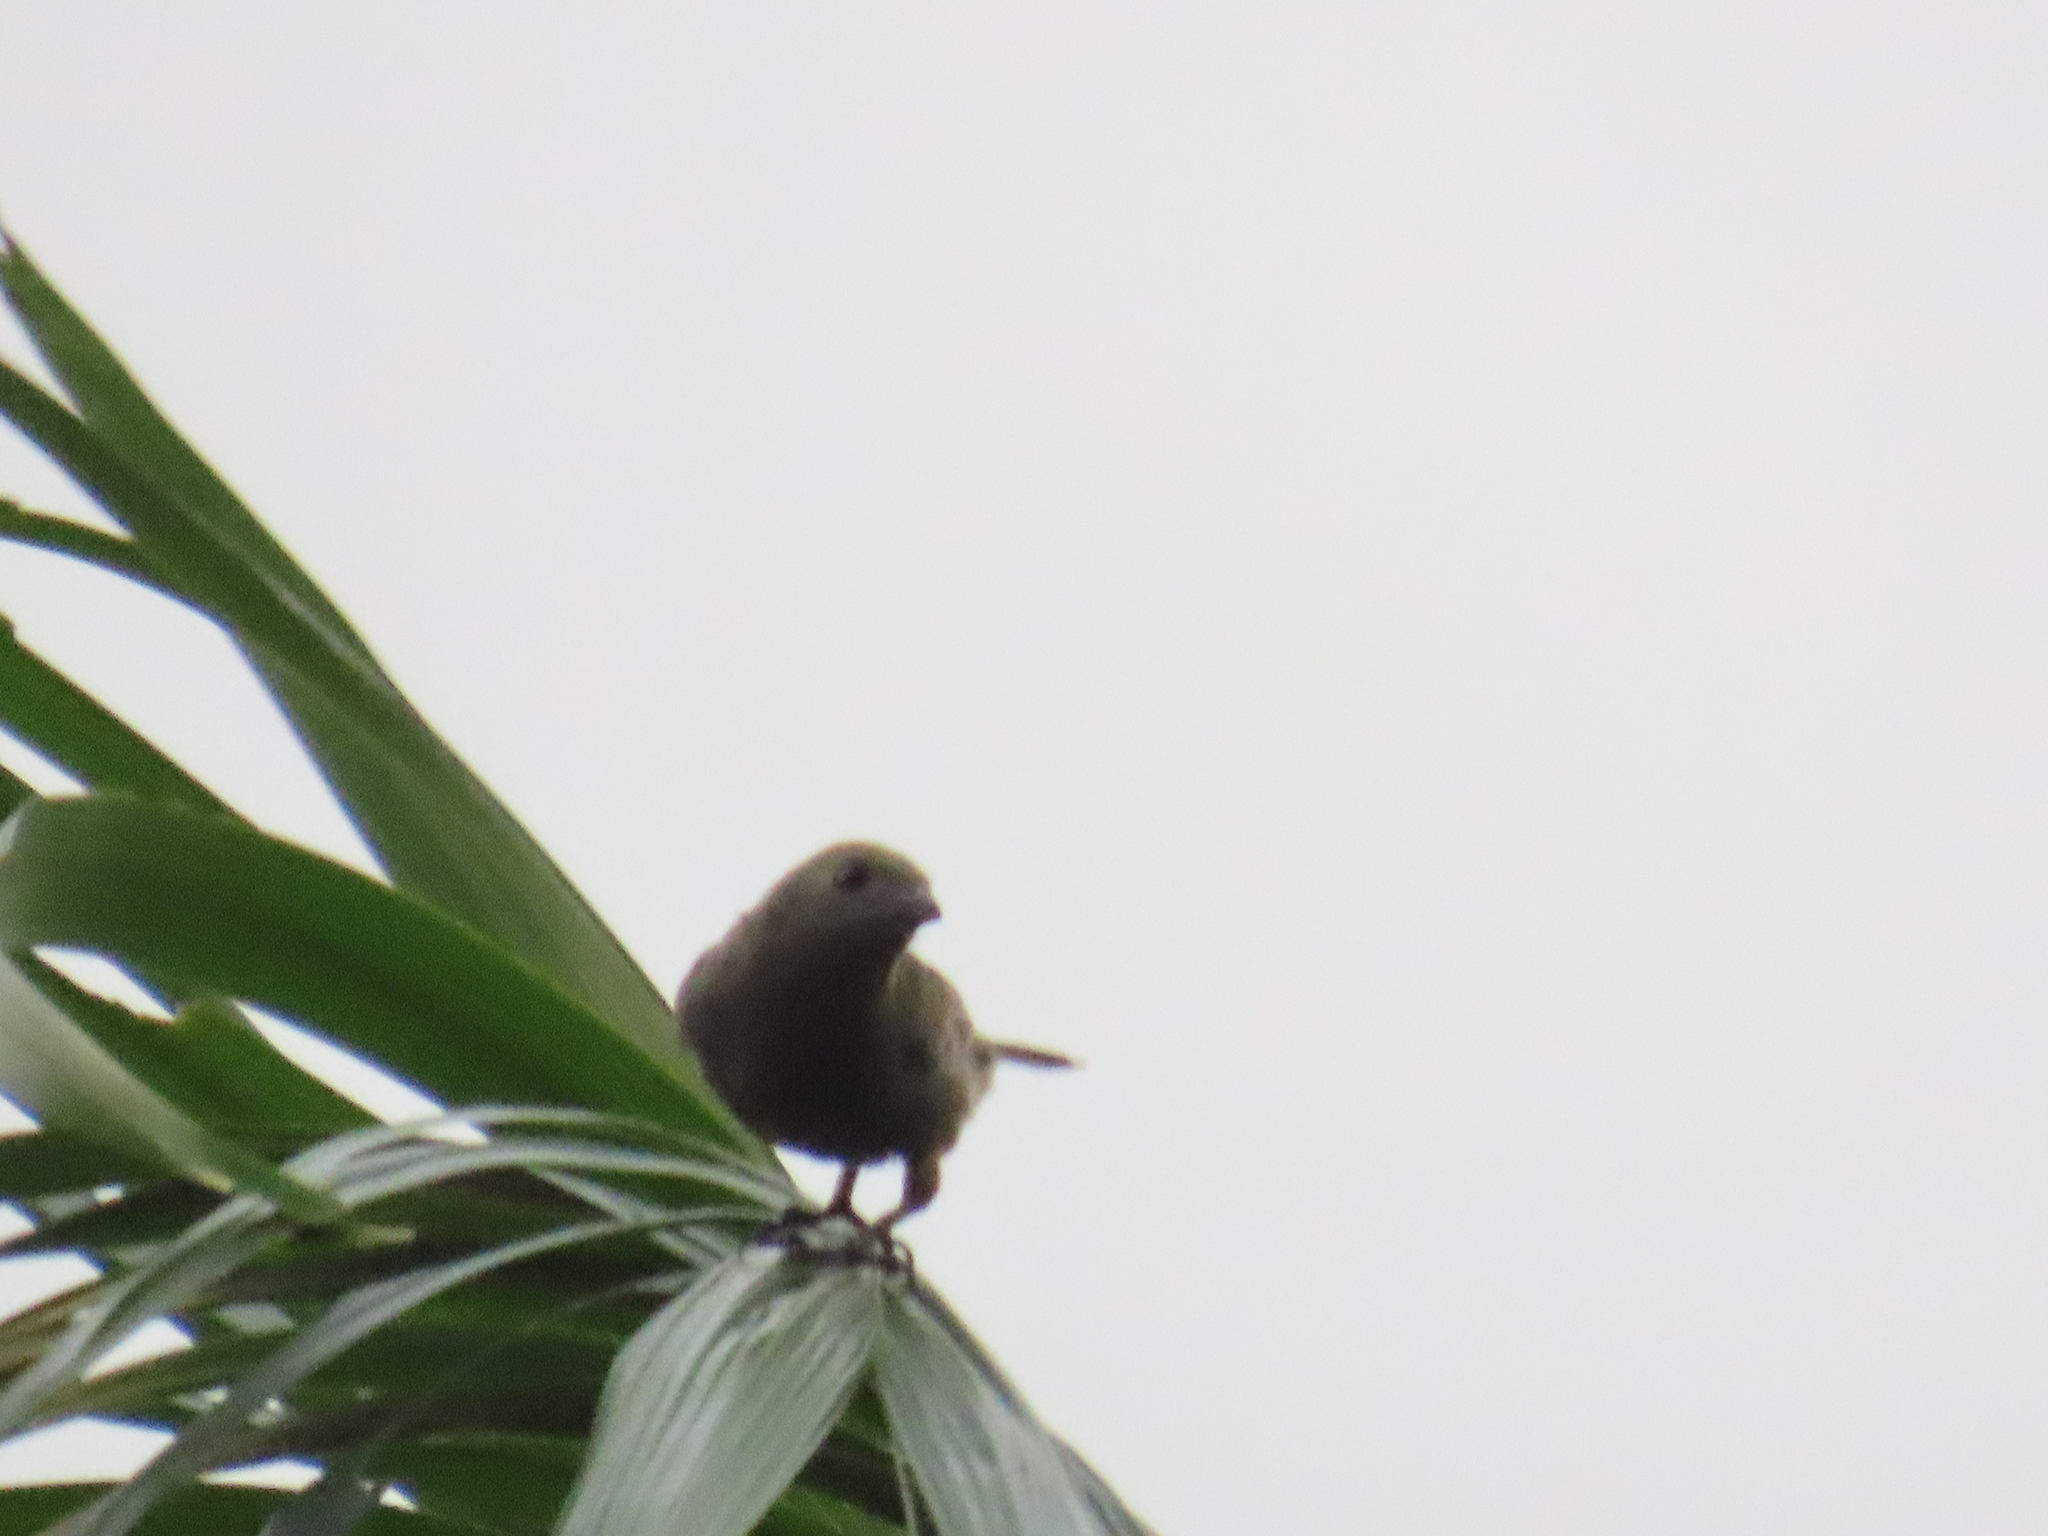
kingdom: Animalia
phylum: Chordata
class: Aves
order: Passeriformes
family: Thraupidae
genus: Thraupis
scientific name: Thraupis palmarum
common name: Palm tanager
